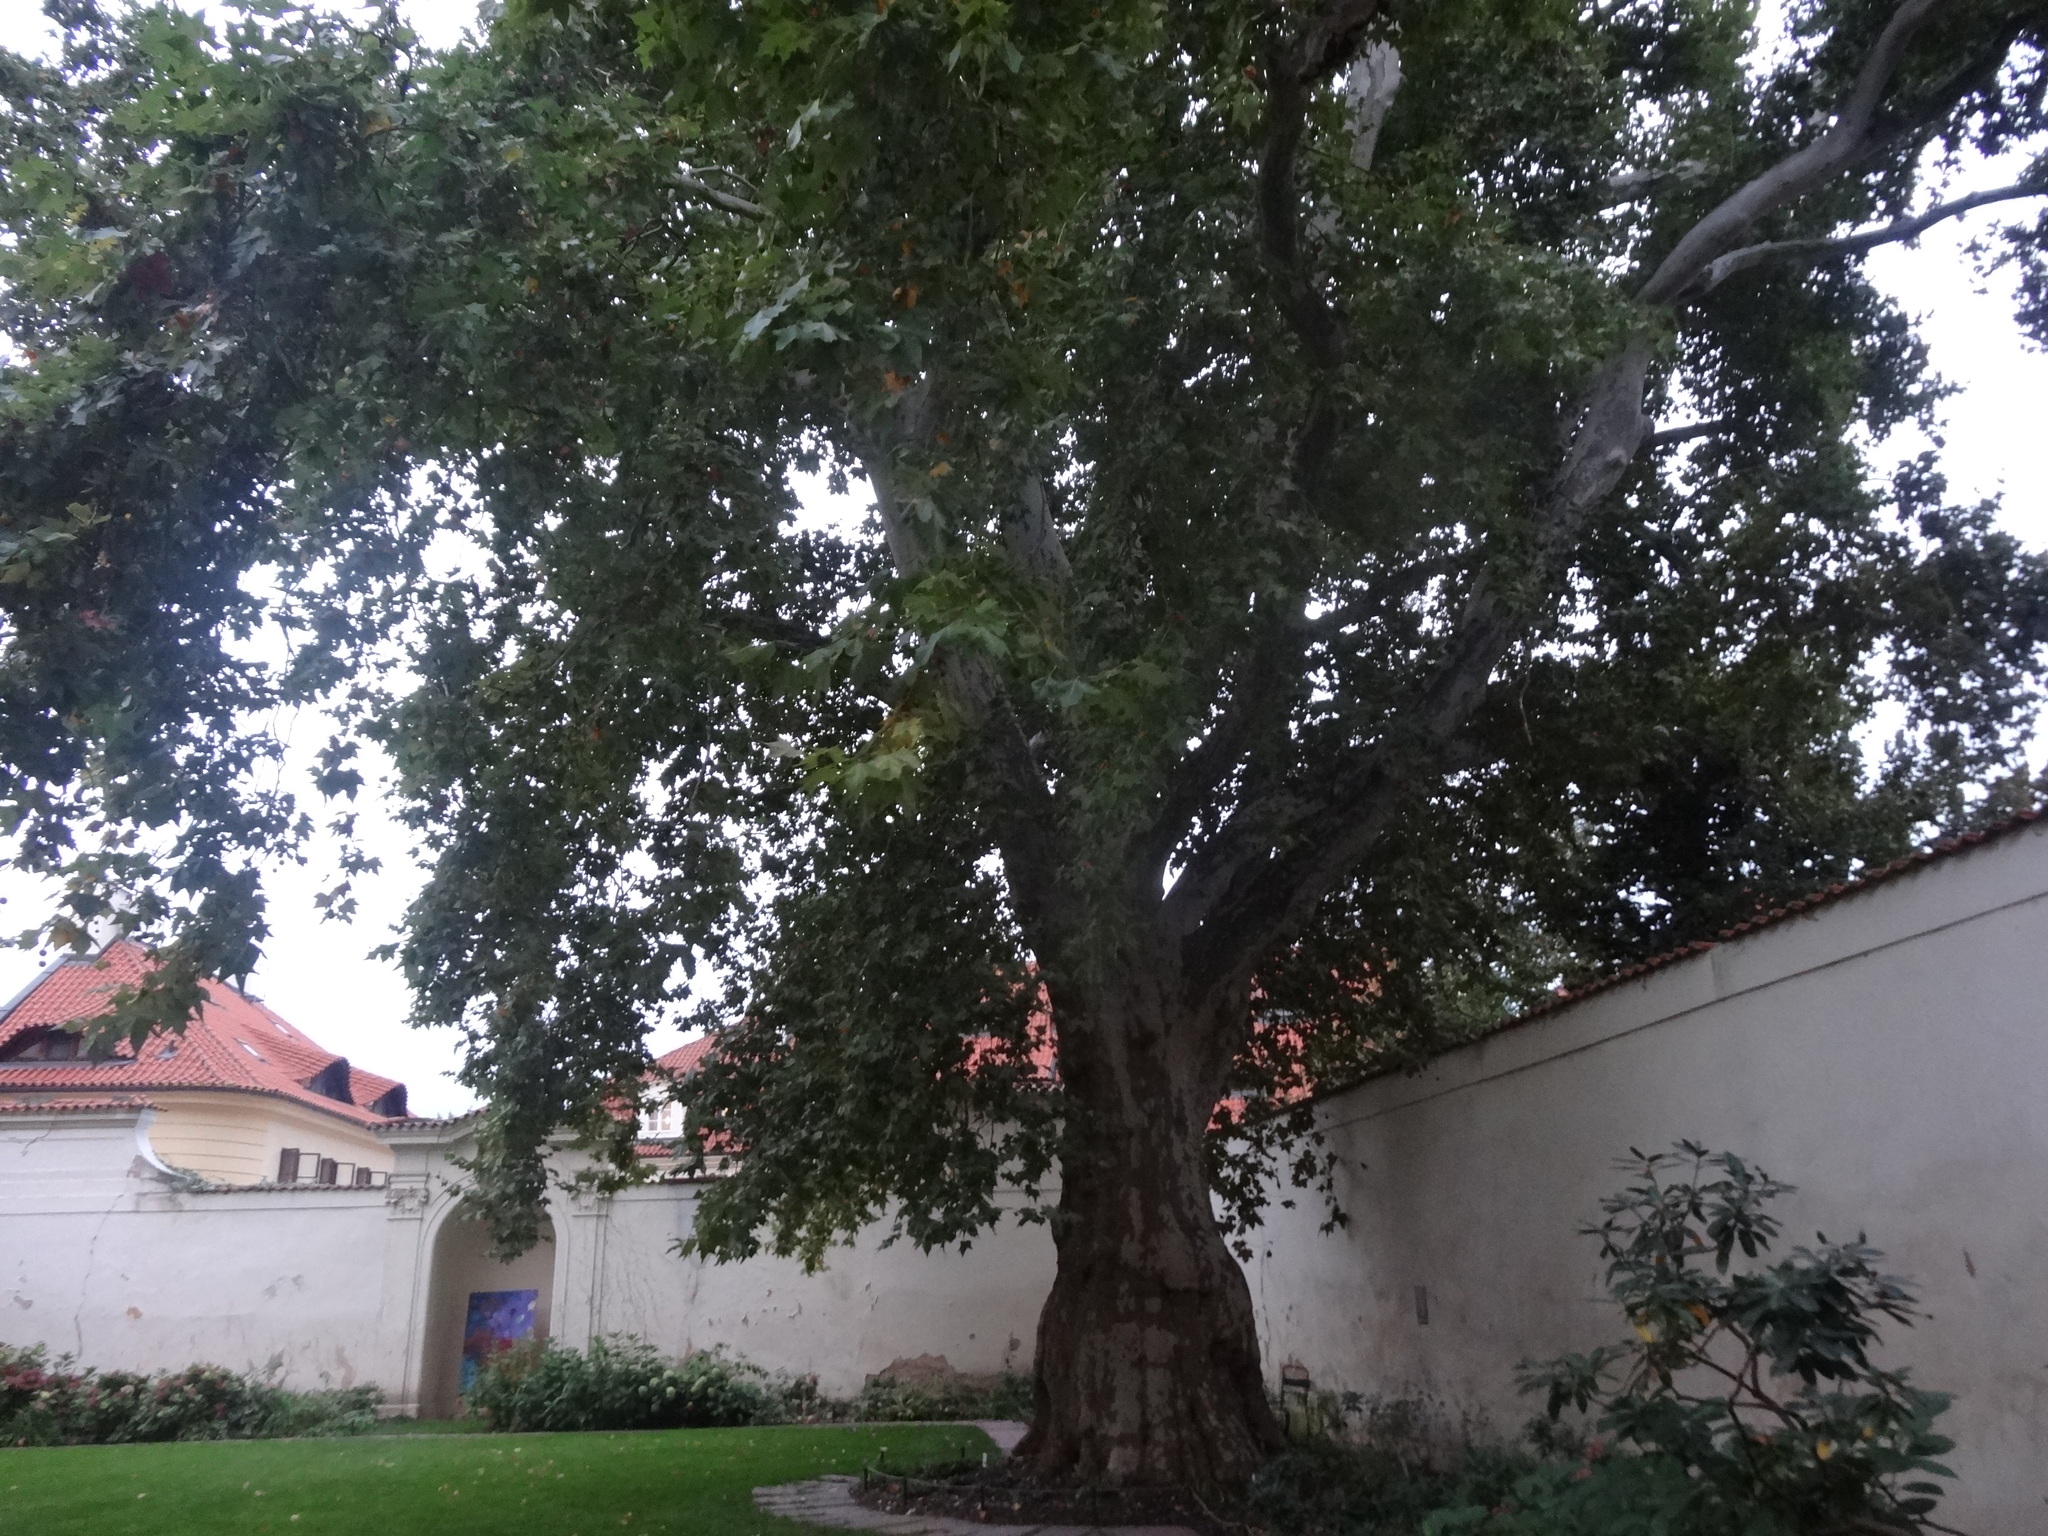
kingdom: Plantae
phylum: Tracheophyta
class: Magnoliopsida
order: Proteales
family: Platanaceae
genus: Platanus
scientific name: Platanus hispanica
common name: London plane
